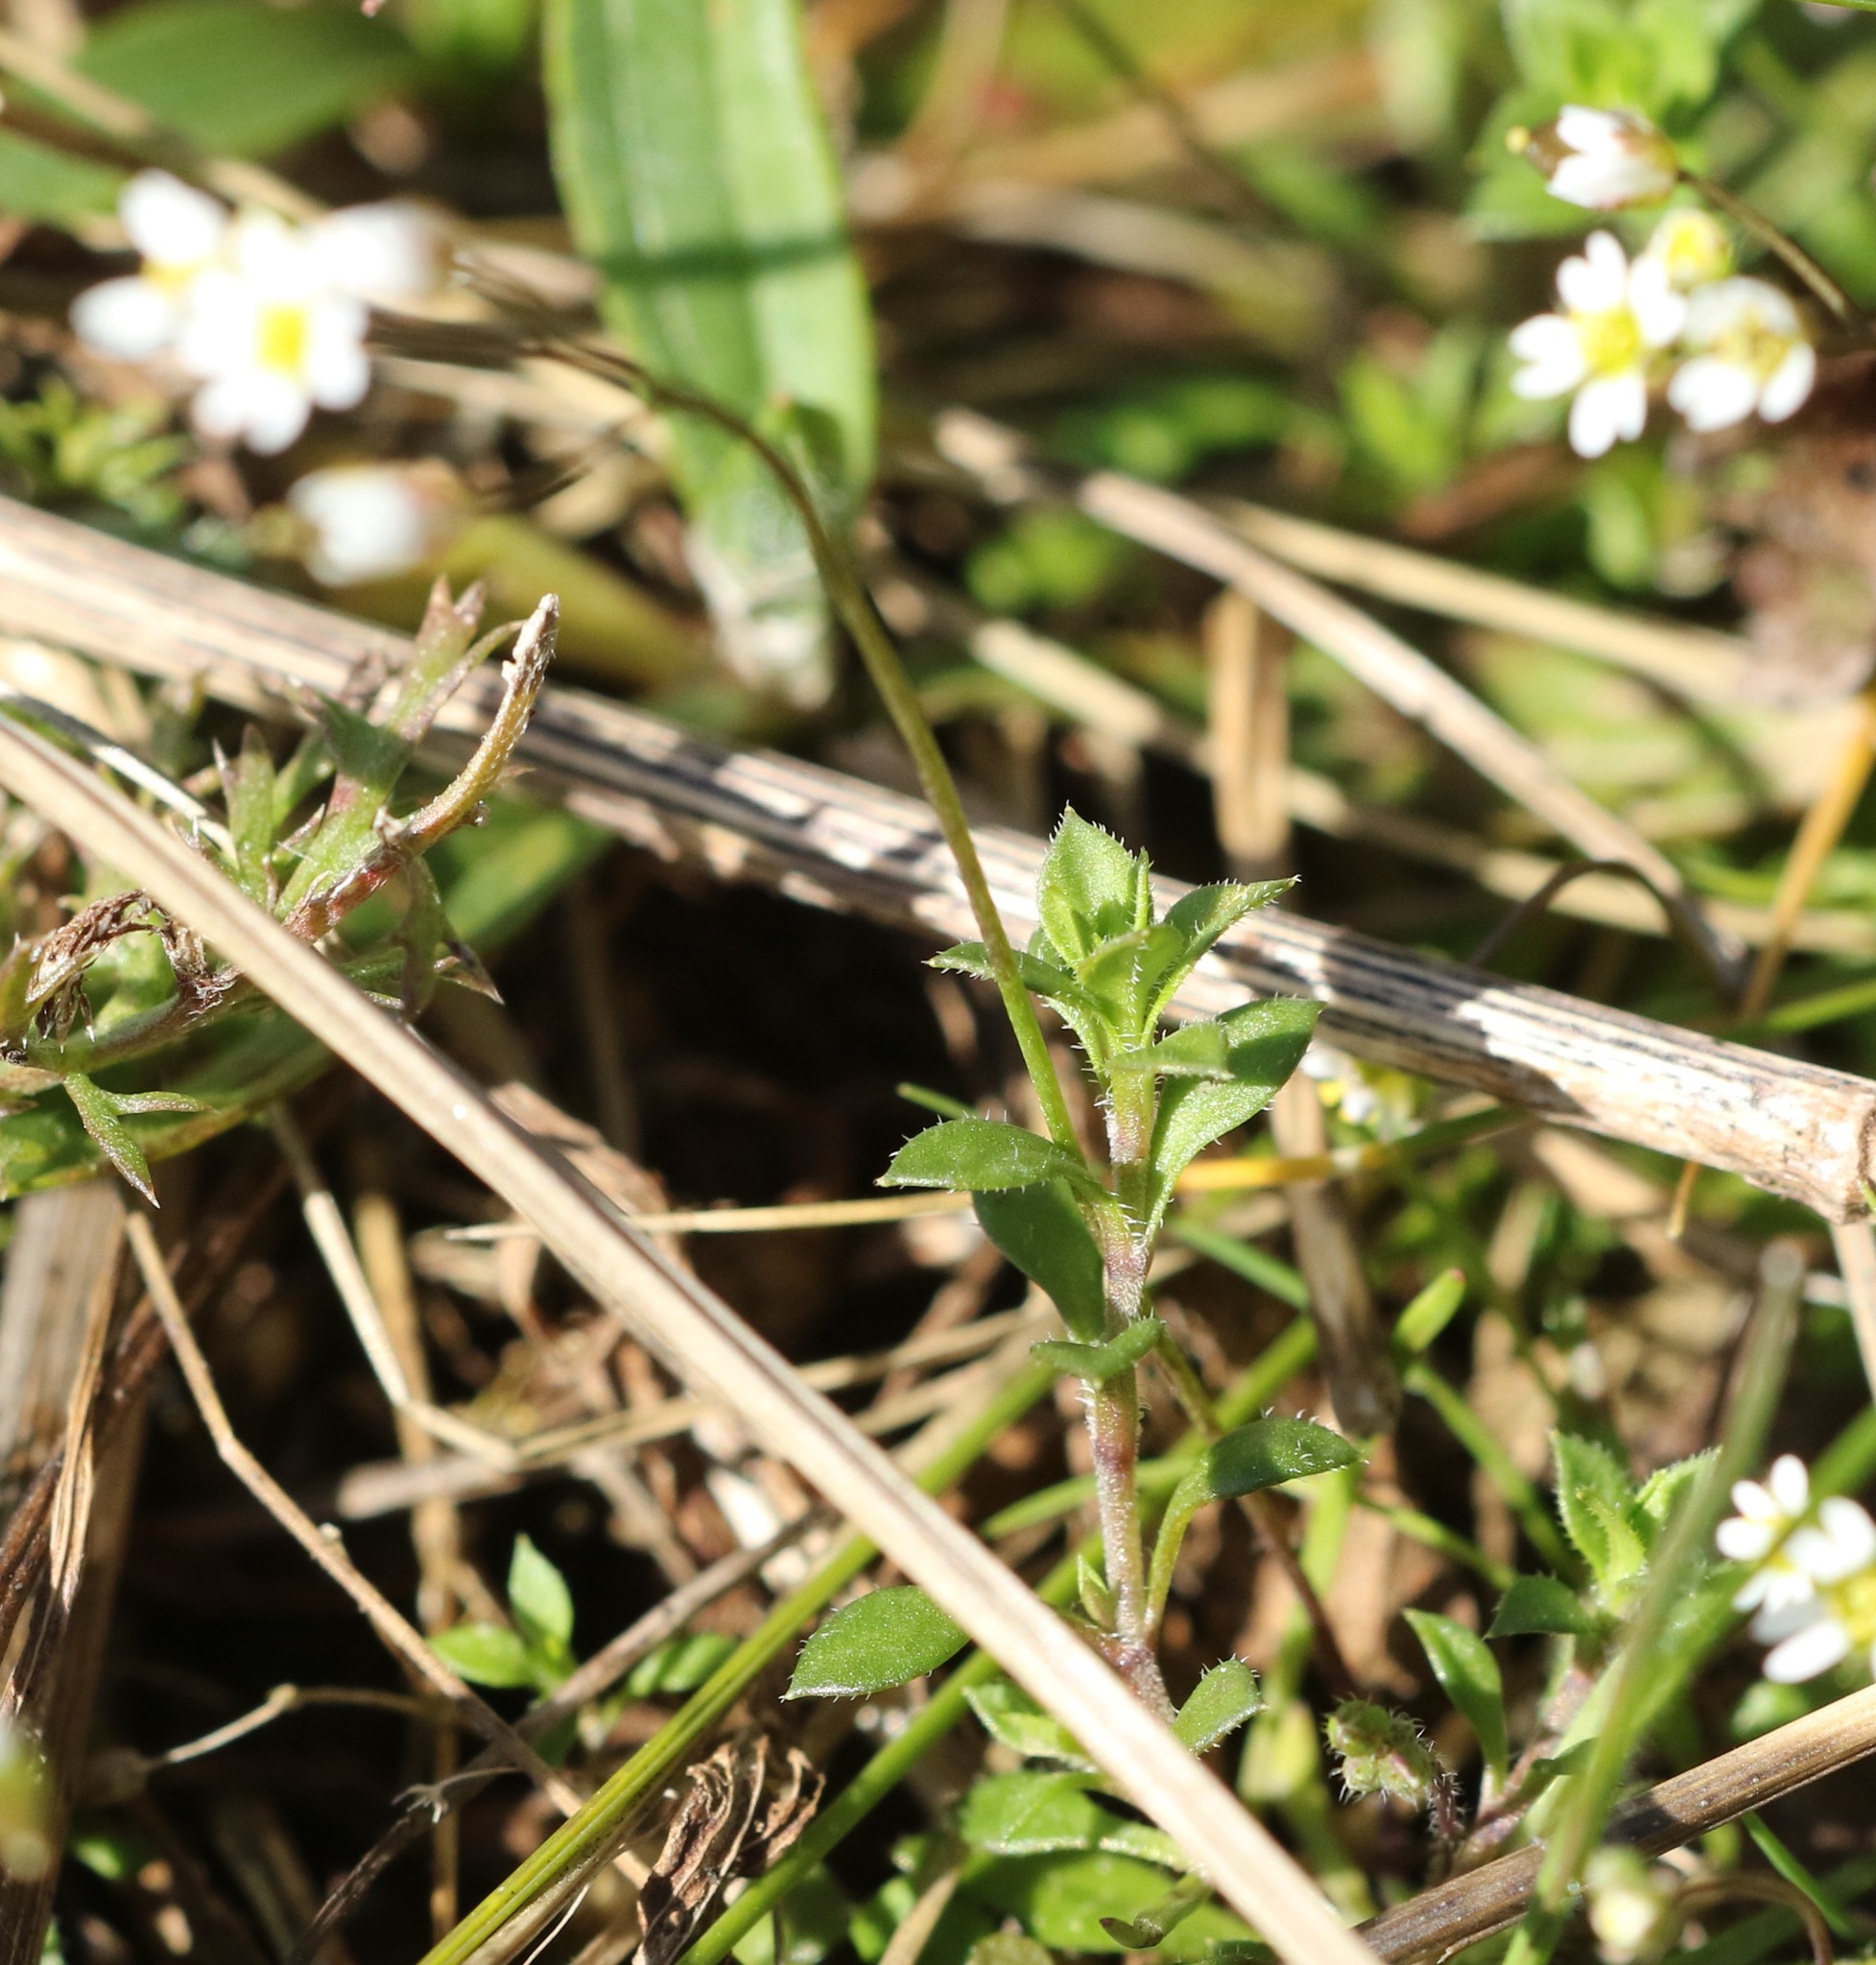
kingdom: Plantae
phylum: Tracheophyta
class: Magnoliopsida
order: Brassicales
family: Brassicaceae
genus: Draba
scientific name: Draba verna
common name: Spring draba
